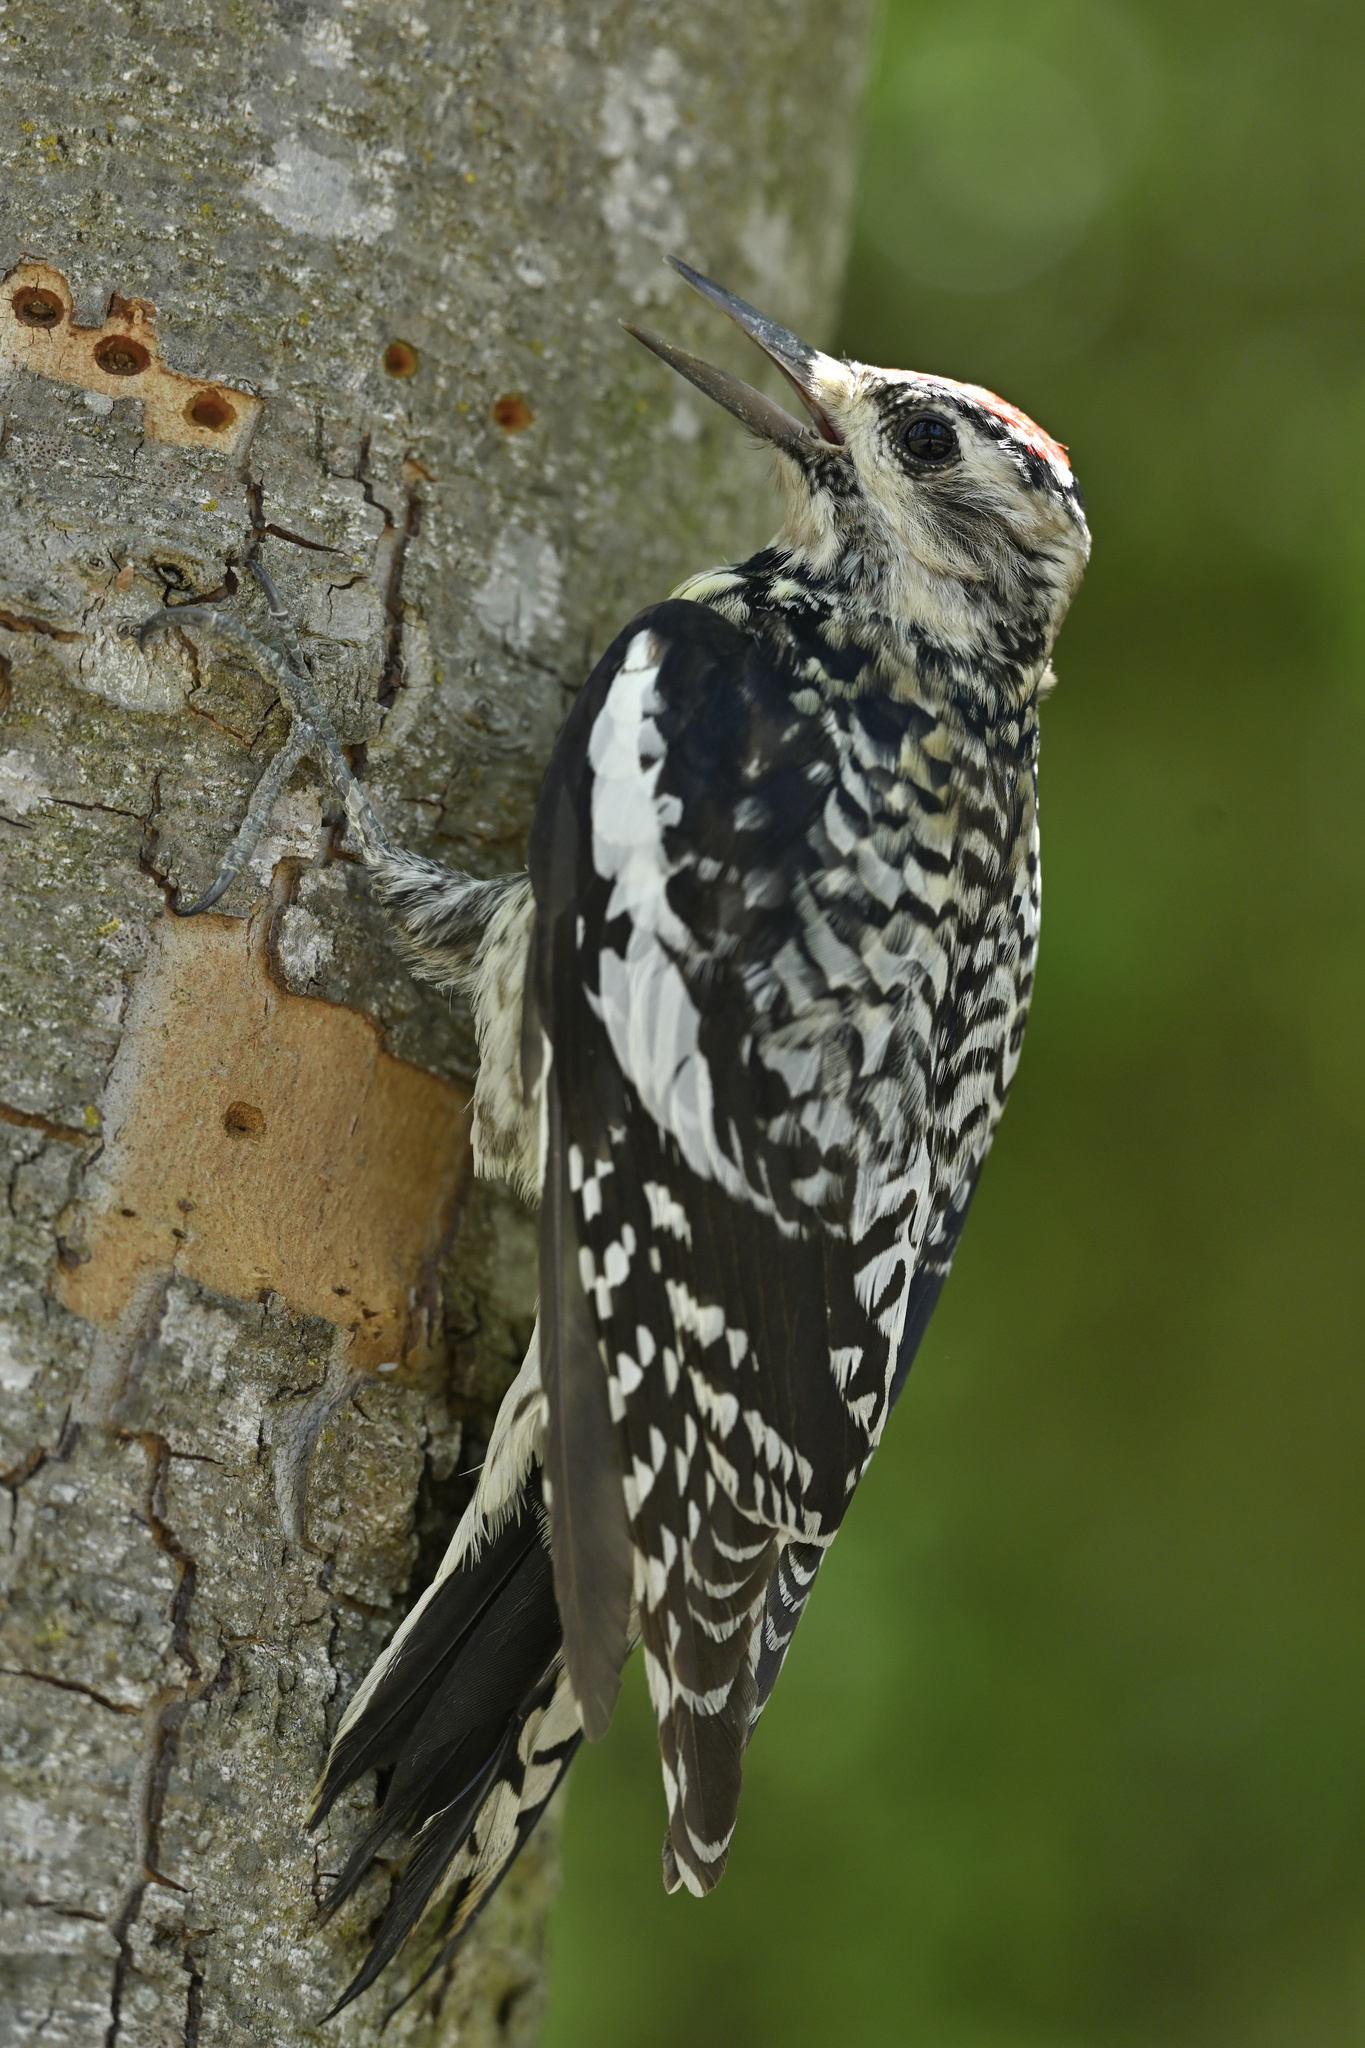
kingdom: Animalia
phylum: Chordata
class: Aves
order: Piciformes
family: Picidae
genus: Sphyrapicus
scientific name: Sphyrapicus varius
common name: Yellow-bellied sapsucker
